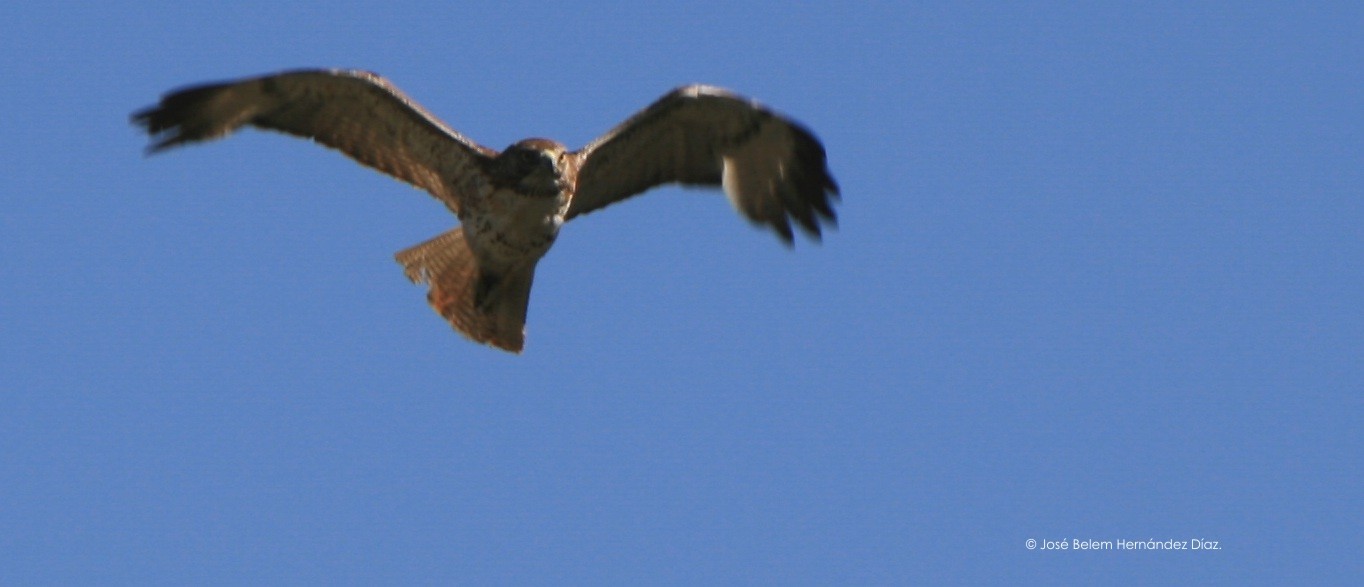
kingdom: Animalia
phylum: Chordata
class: Aves
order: Accipitriformes
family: Accipitridae
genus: Buteo
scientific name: Buteo jamaicensis
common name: Red-tailed hawk
